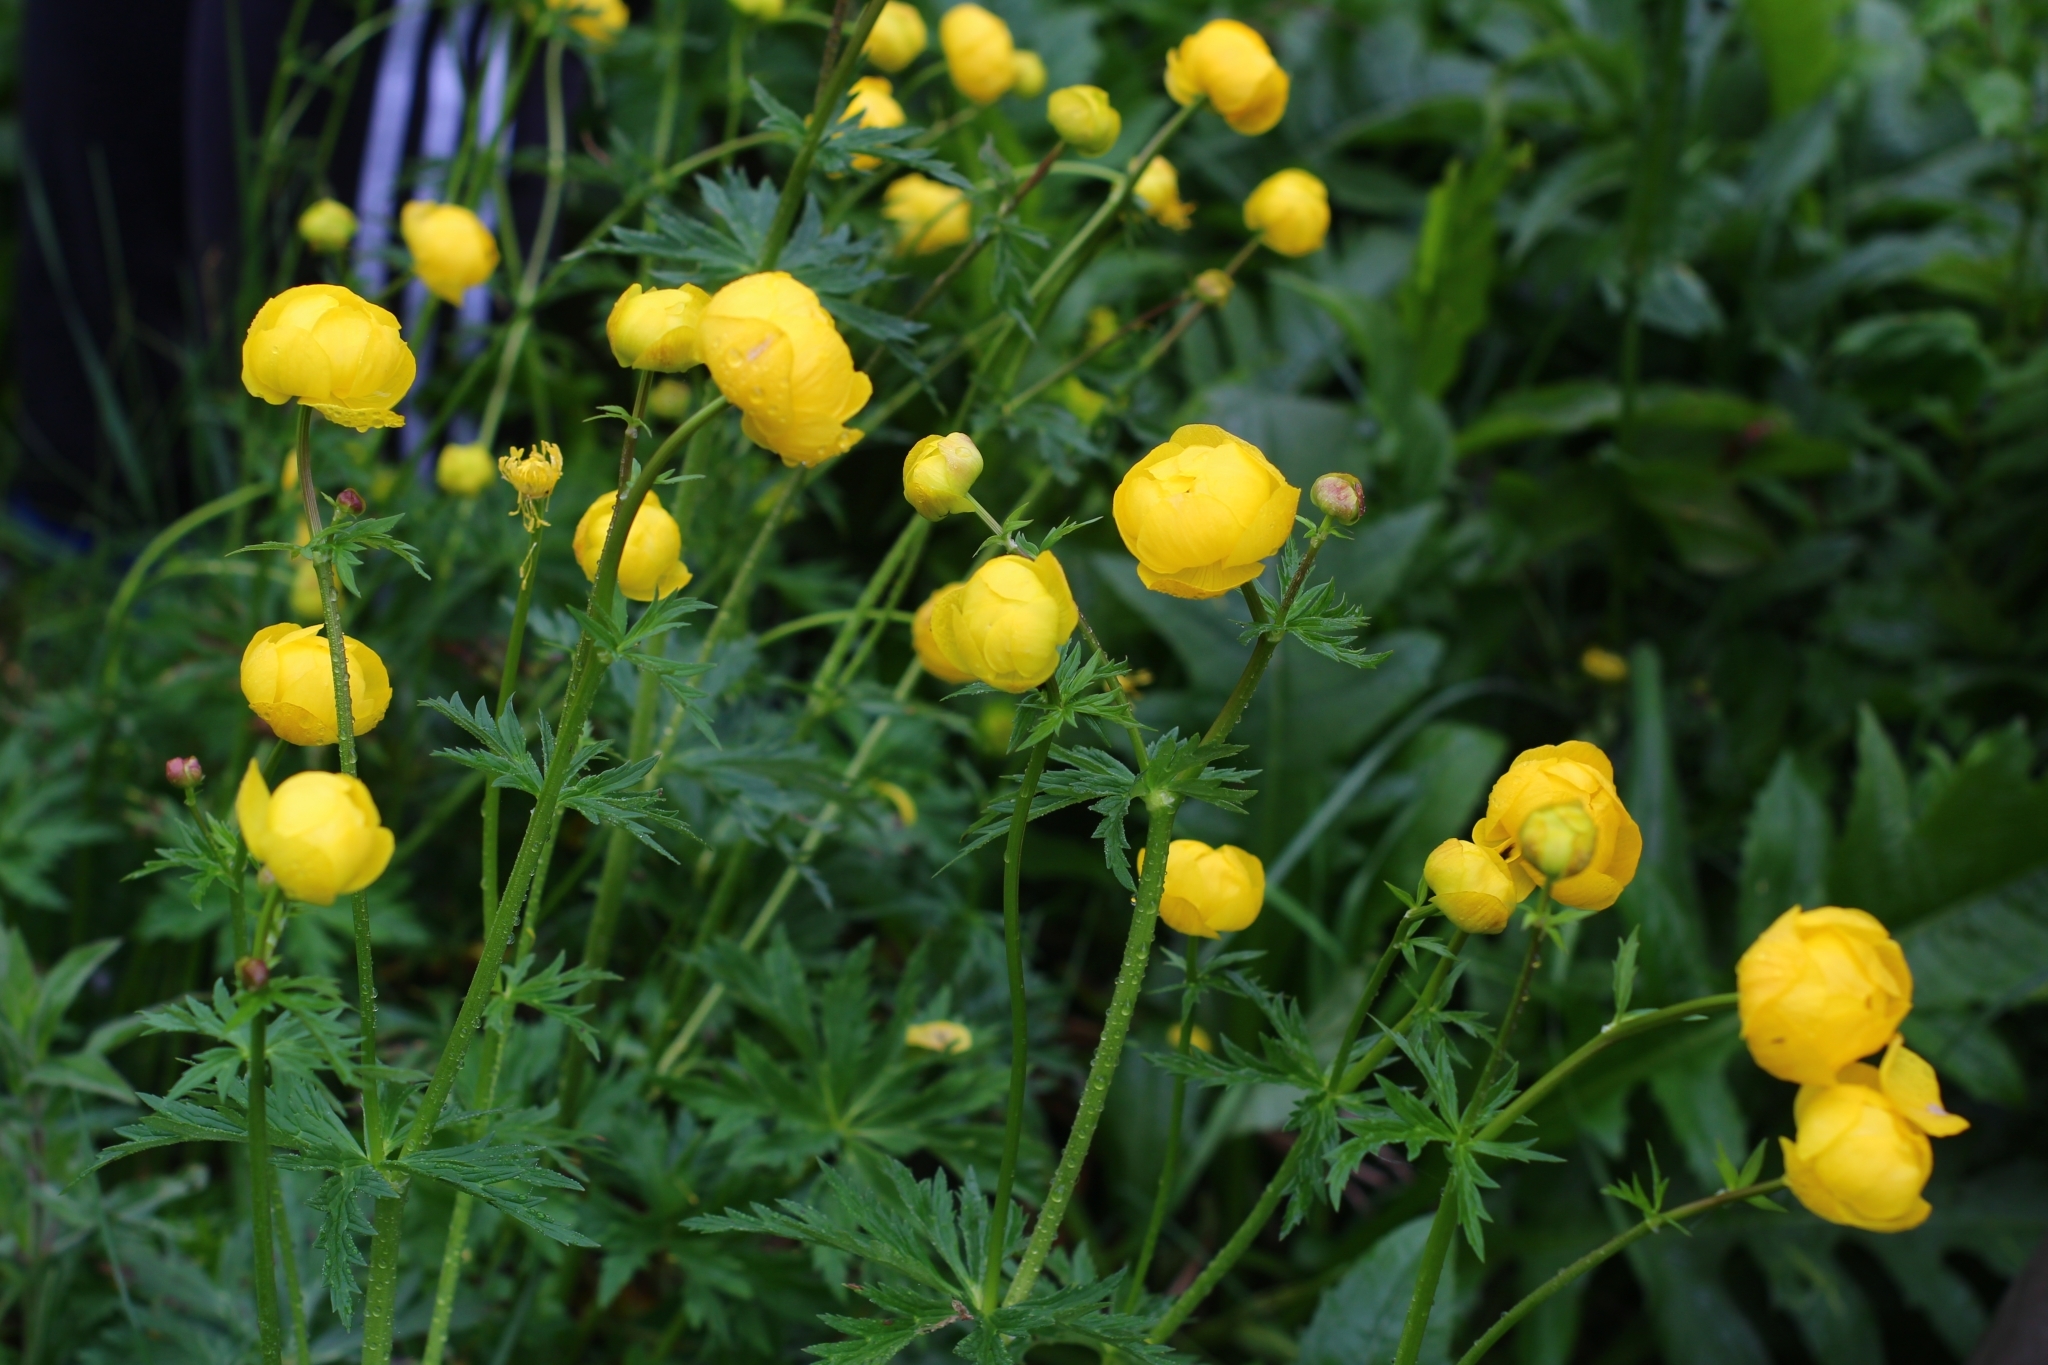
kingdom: Plantae
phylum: Tracheophyta
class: Magnoliopsida
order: Ranunculales
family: Ranunculaceae
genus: Trollius
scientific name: Trollius europaeus
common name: European globeflower
